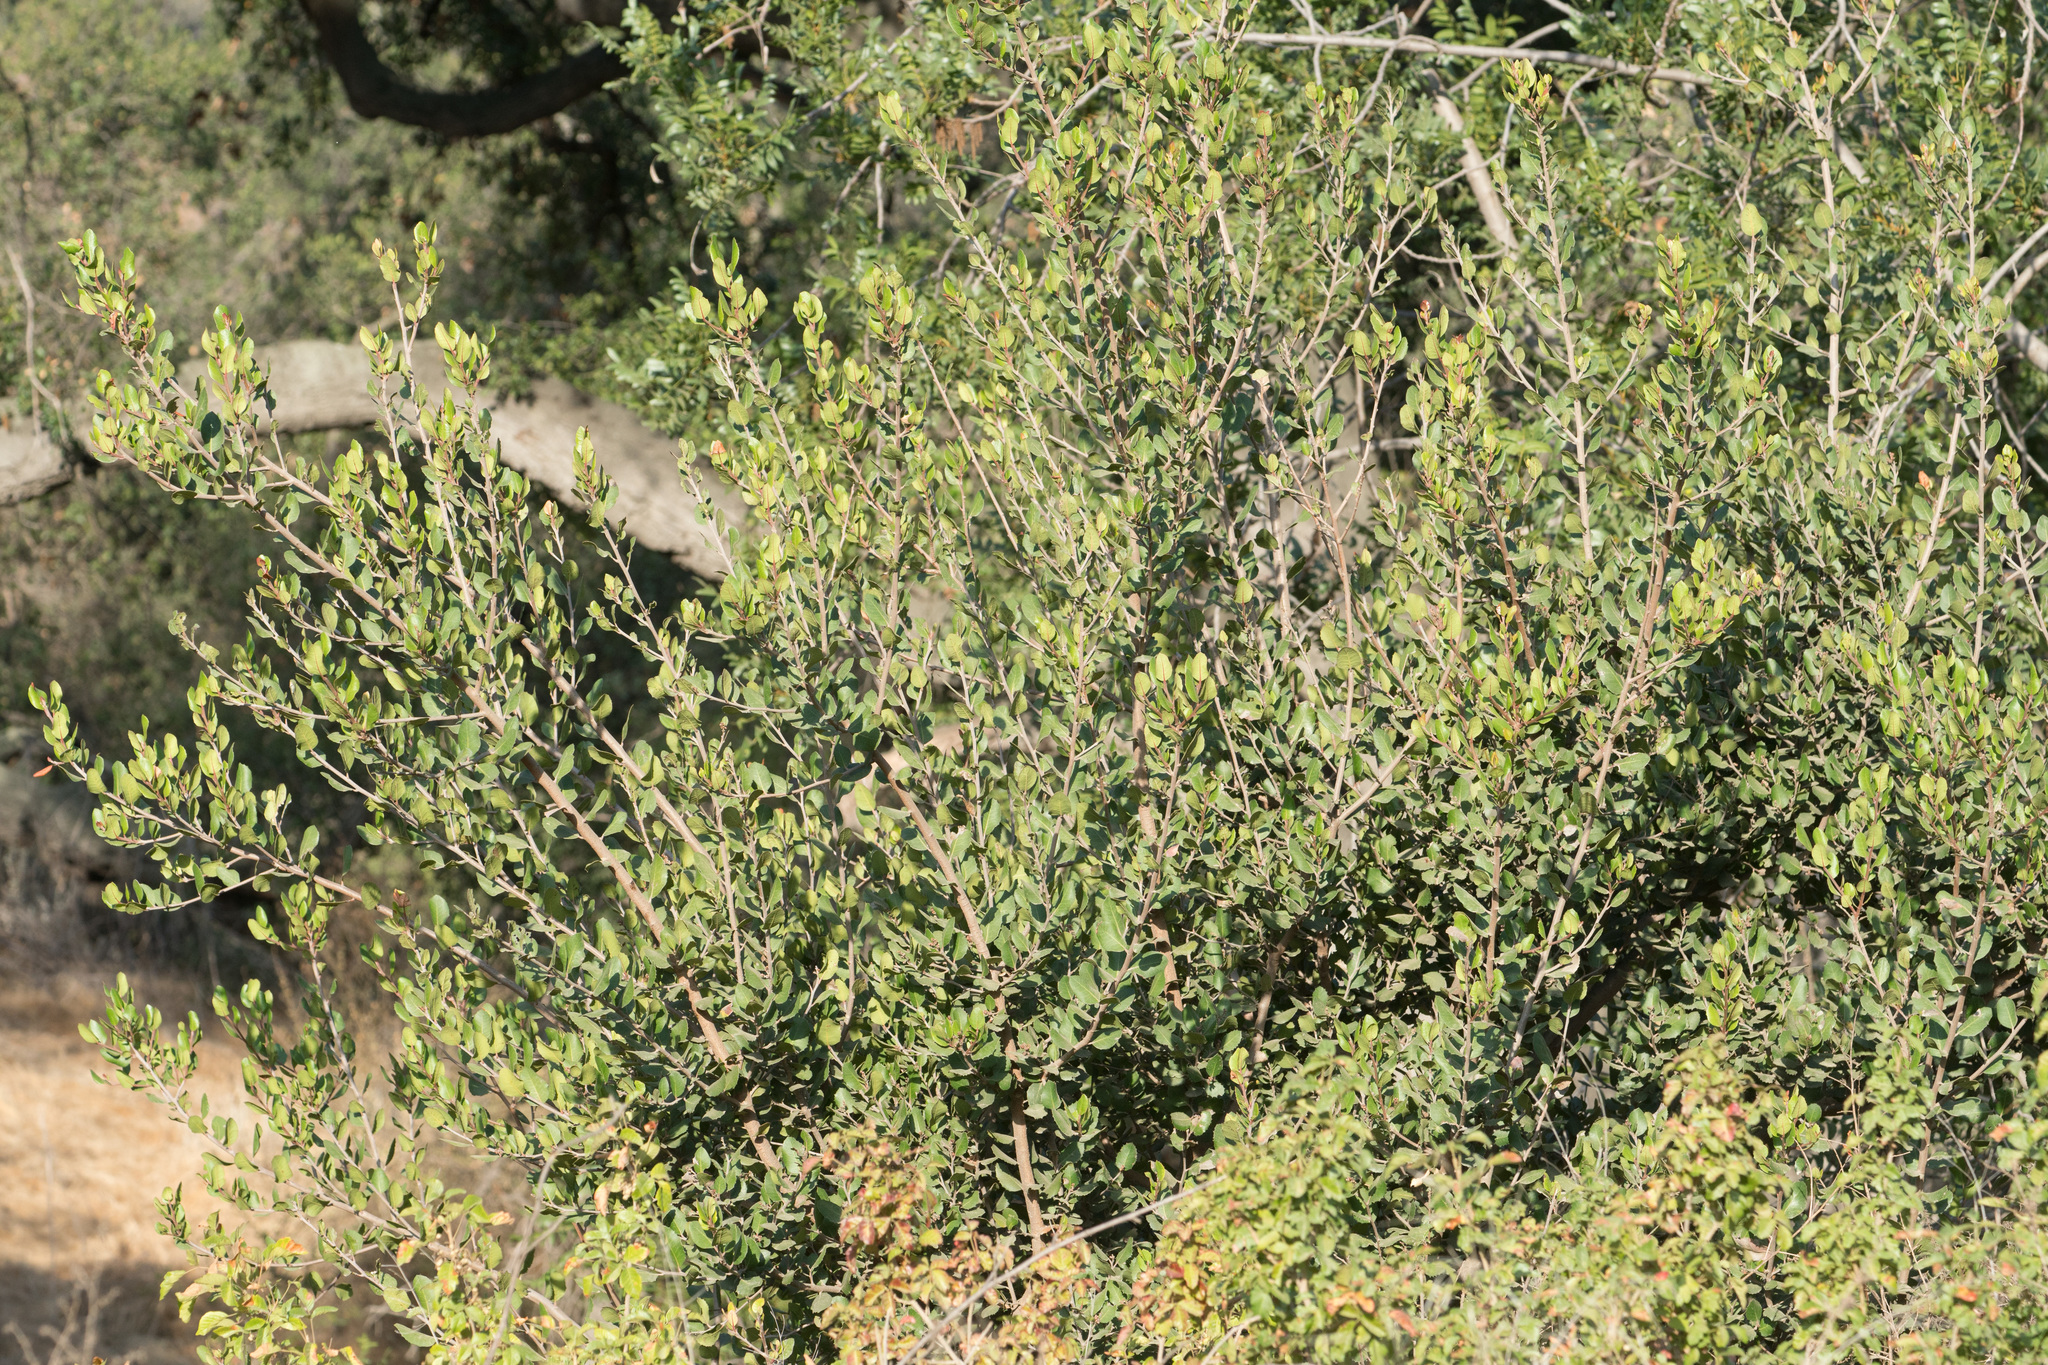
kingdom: Plantae
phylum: Tracheophyta
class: Magnoliopsida
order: Sapindales
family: Anacardiaceae
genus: Rhus
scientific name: Rhus integrifolia
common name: Lemonade sumac
